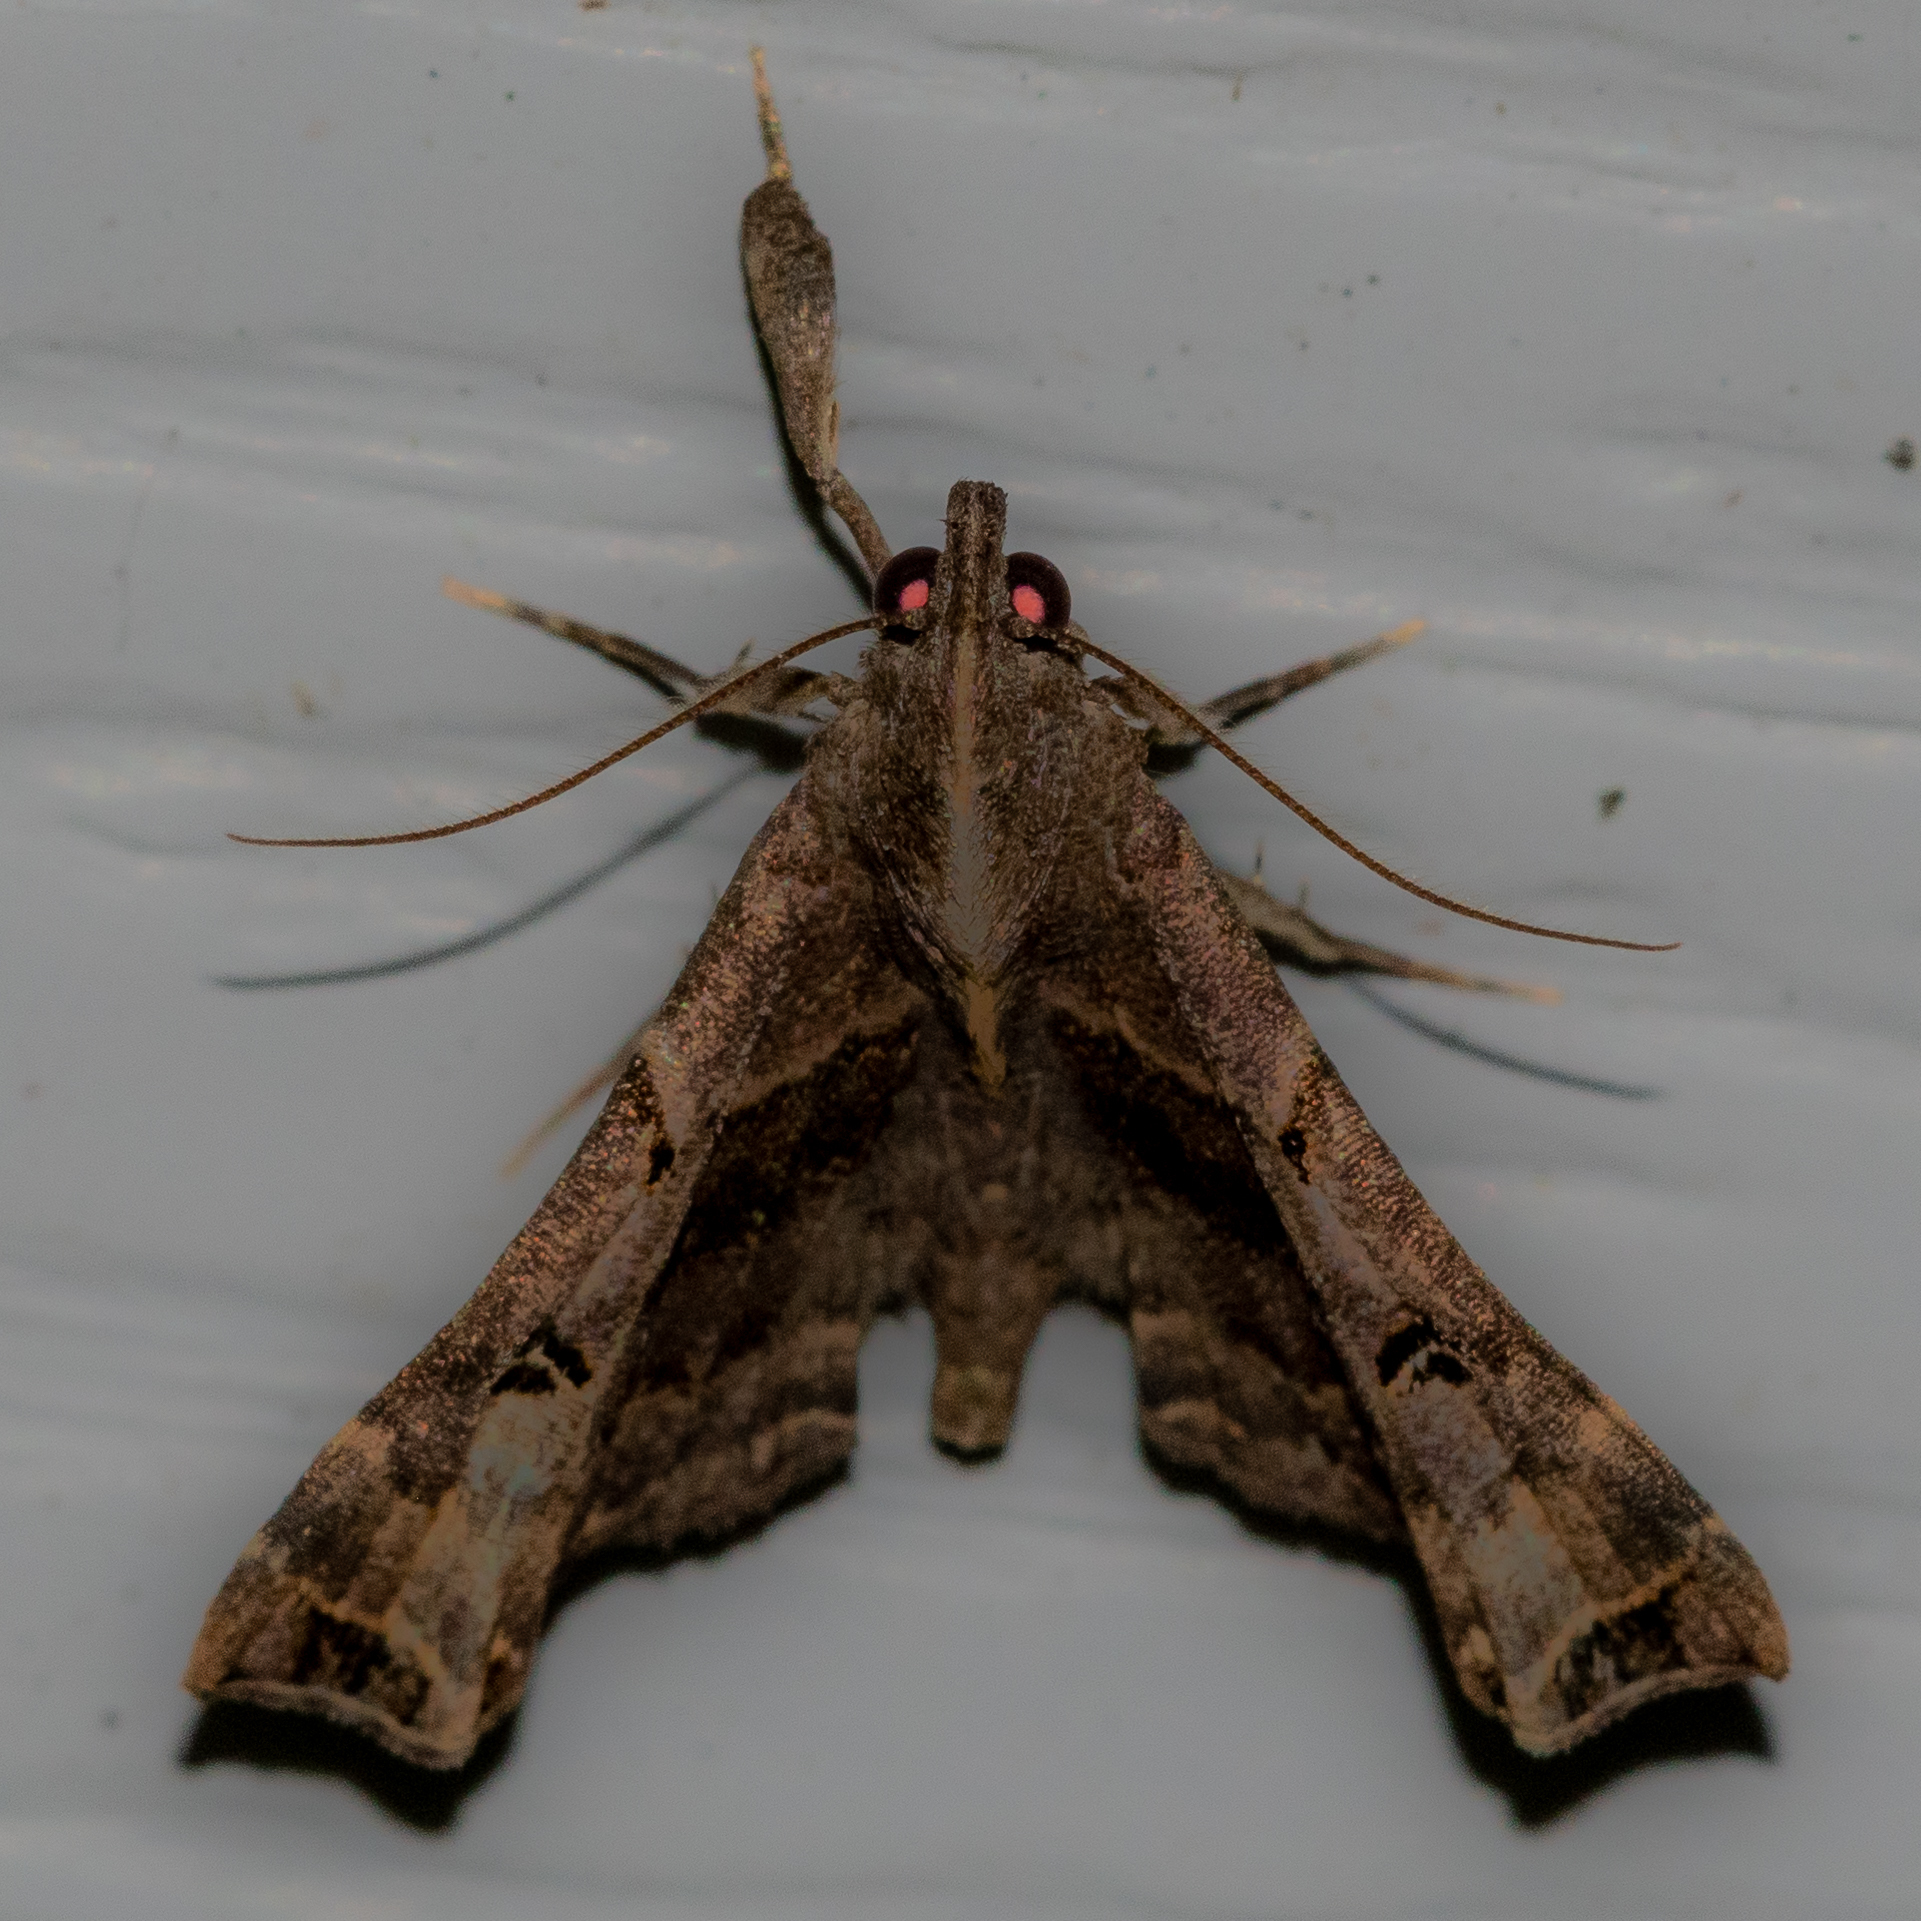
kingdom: Animalia
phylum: Arthropoda
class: Insecta
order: Lepidoptera
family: Erebidae
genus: Palthis
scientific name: Palthis asopialis
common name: Faint-spotted palthis moth
